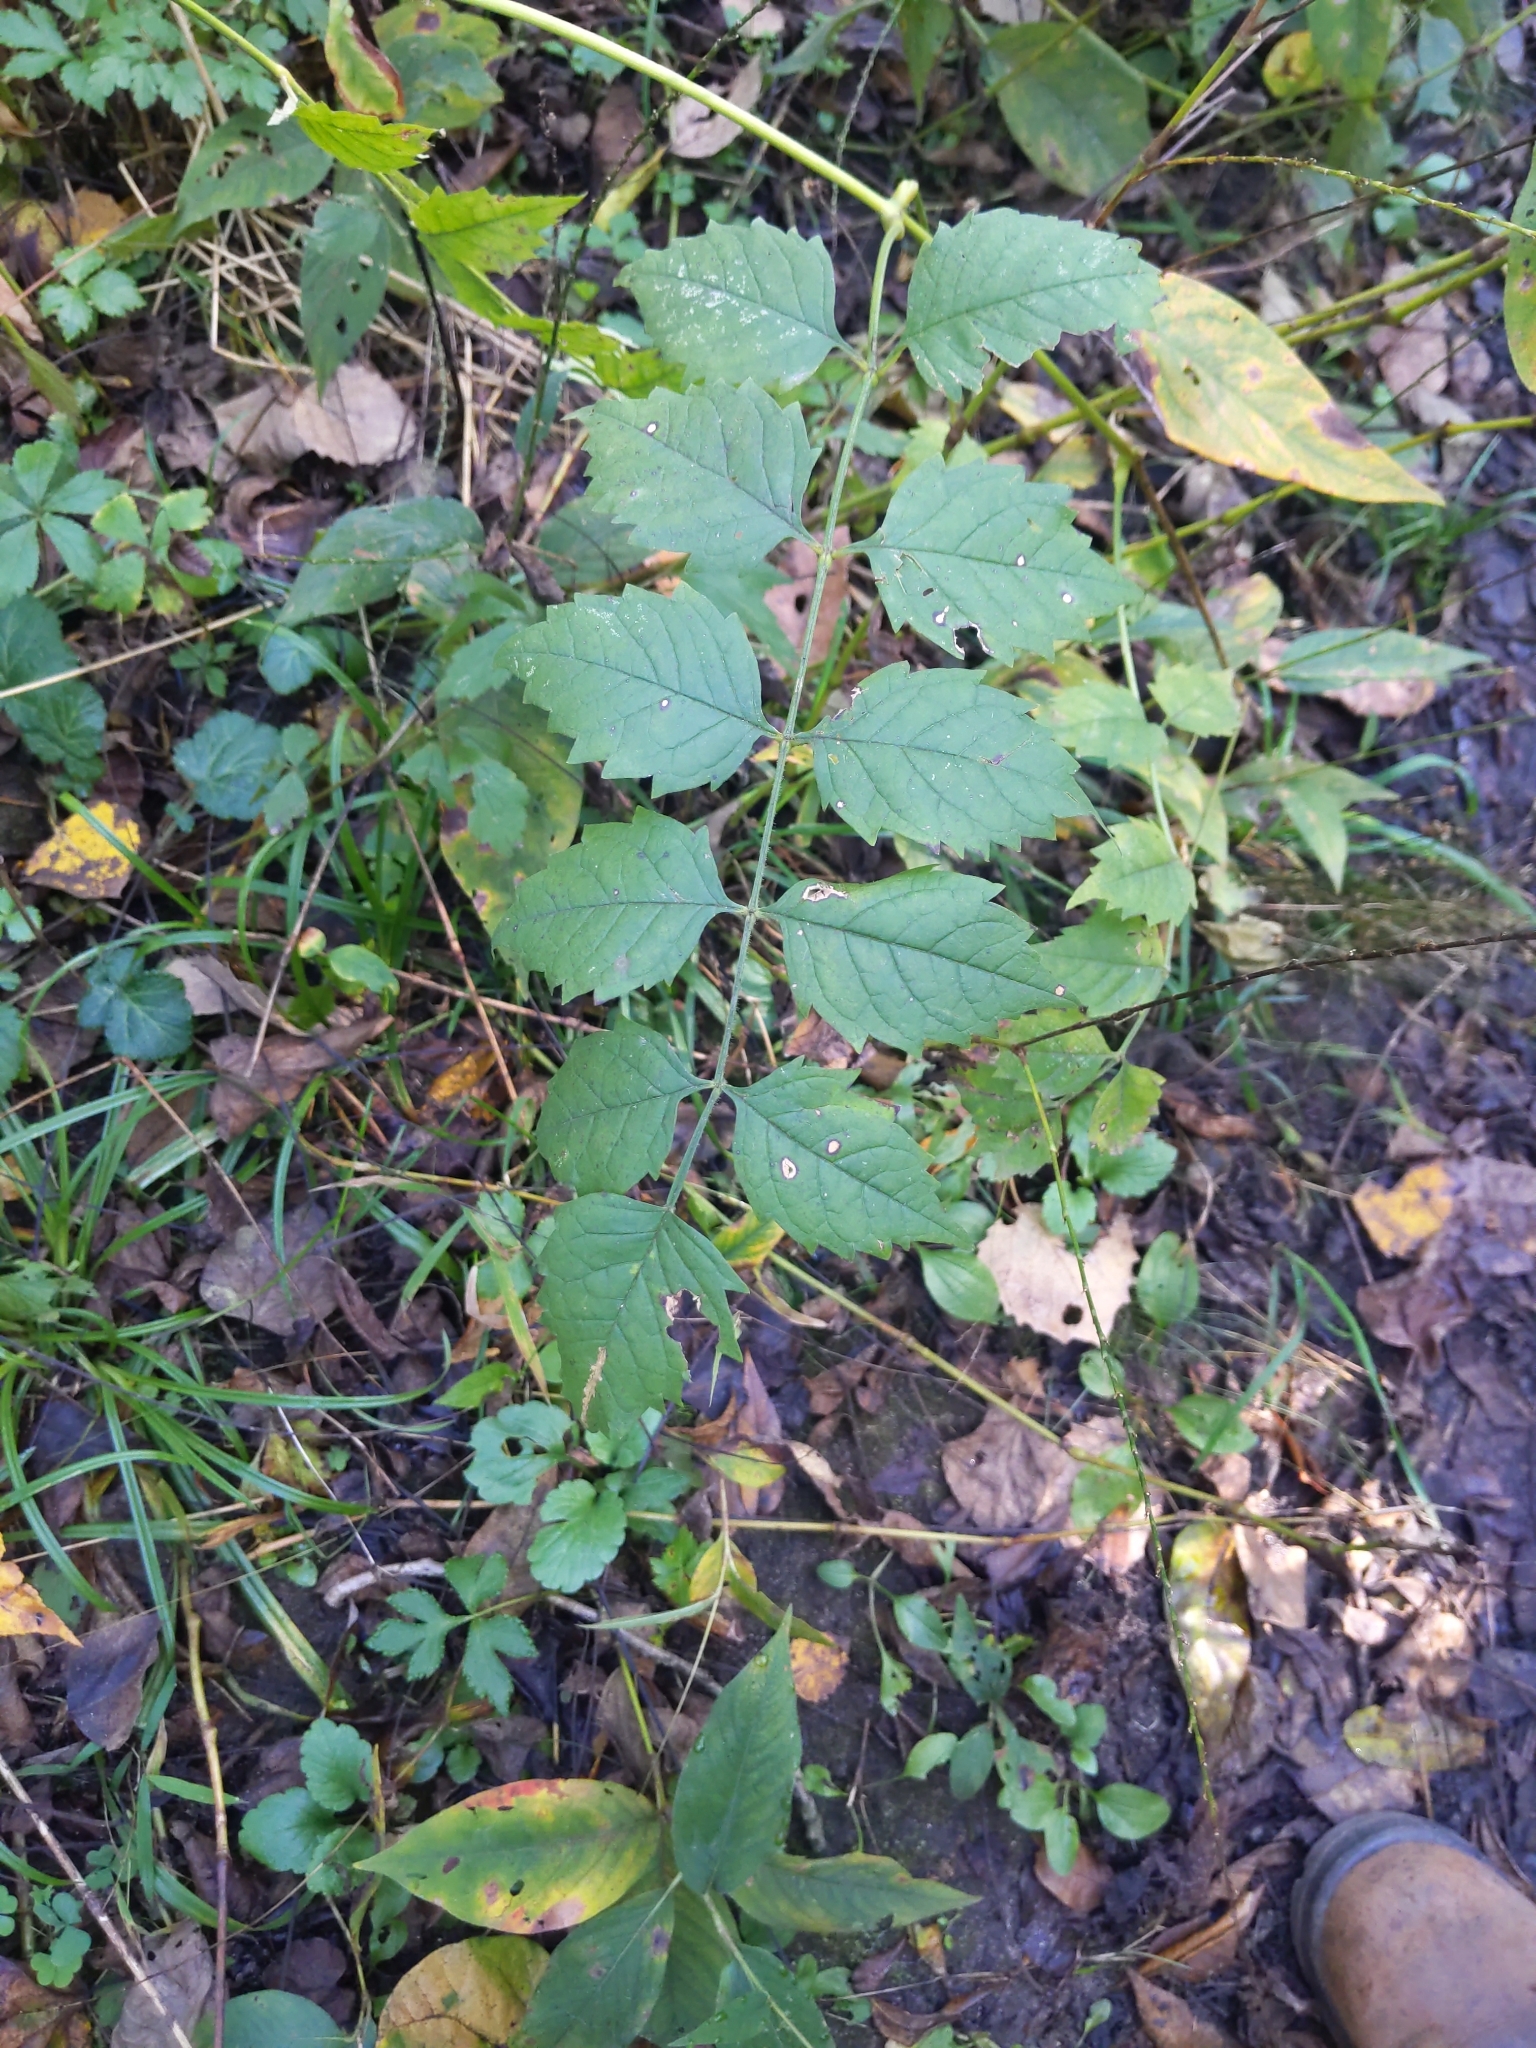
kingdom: Plantae
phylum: Tracheophyta
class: Magnoliopsida
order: Lamiales
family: Bignoniaceae
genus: Campsis
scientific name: Campsis radicans
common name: Trumpet-creeper
